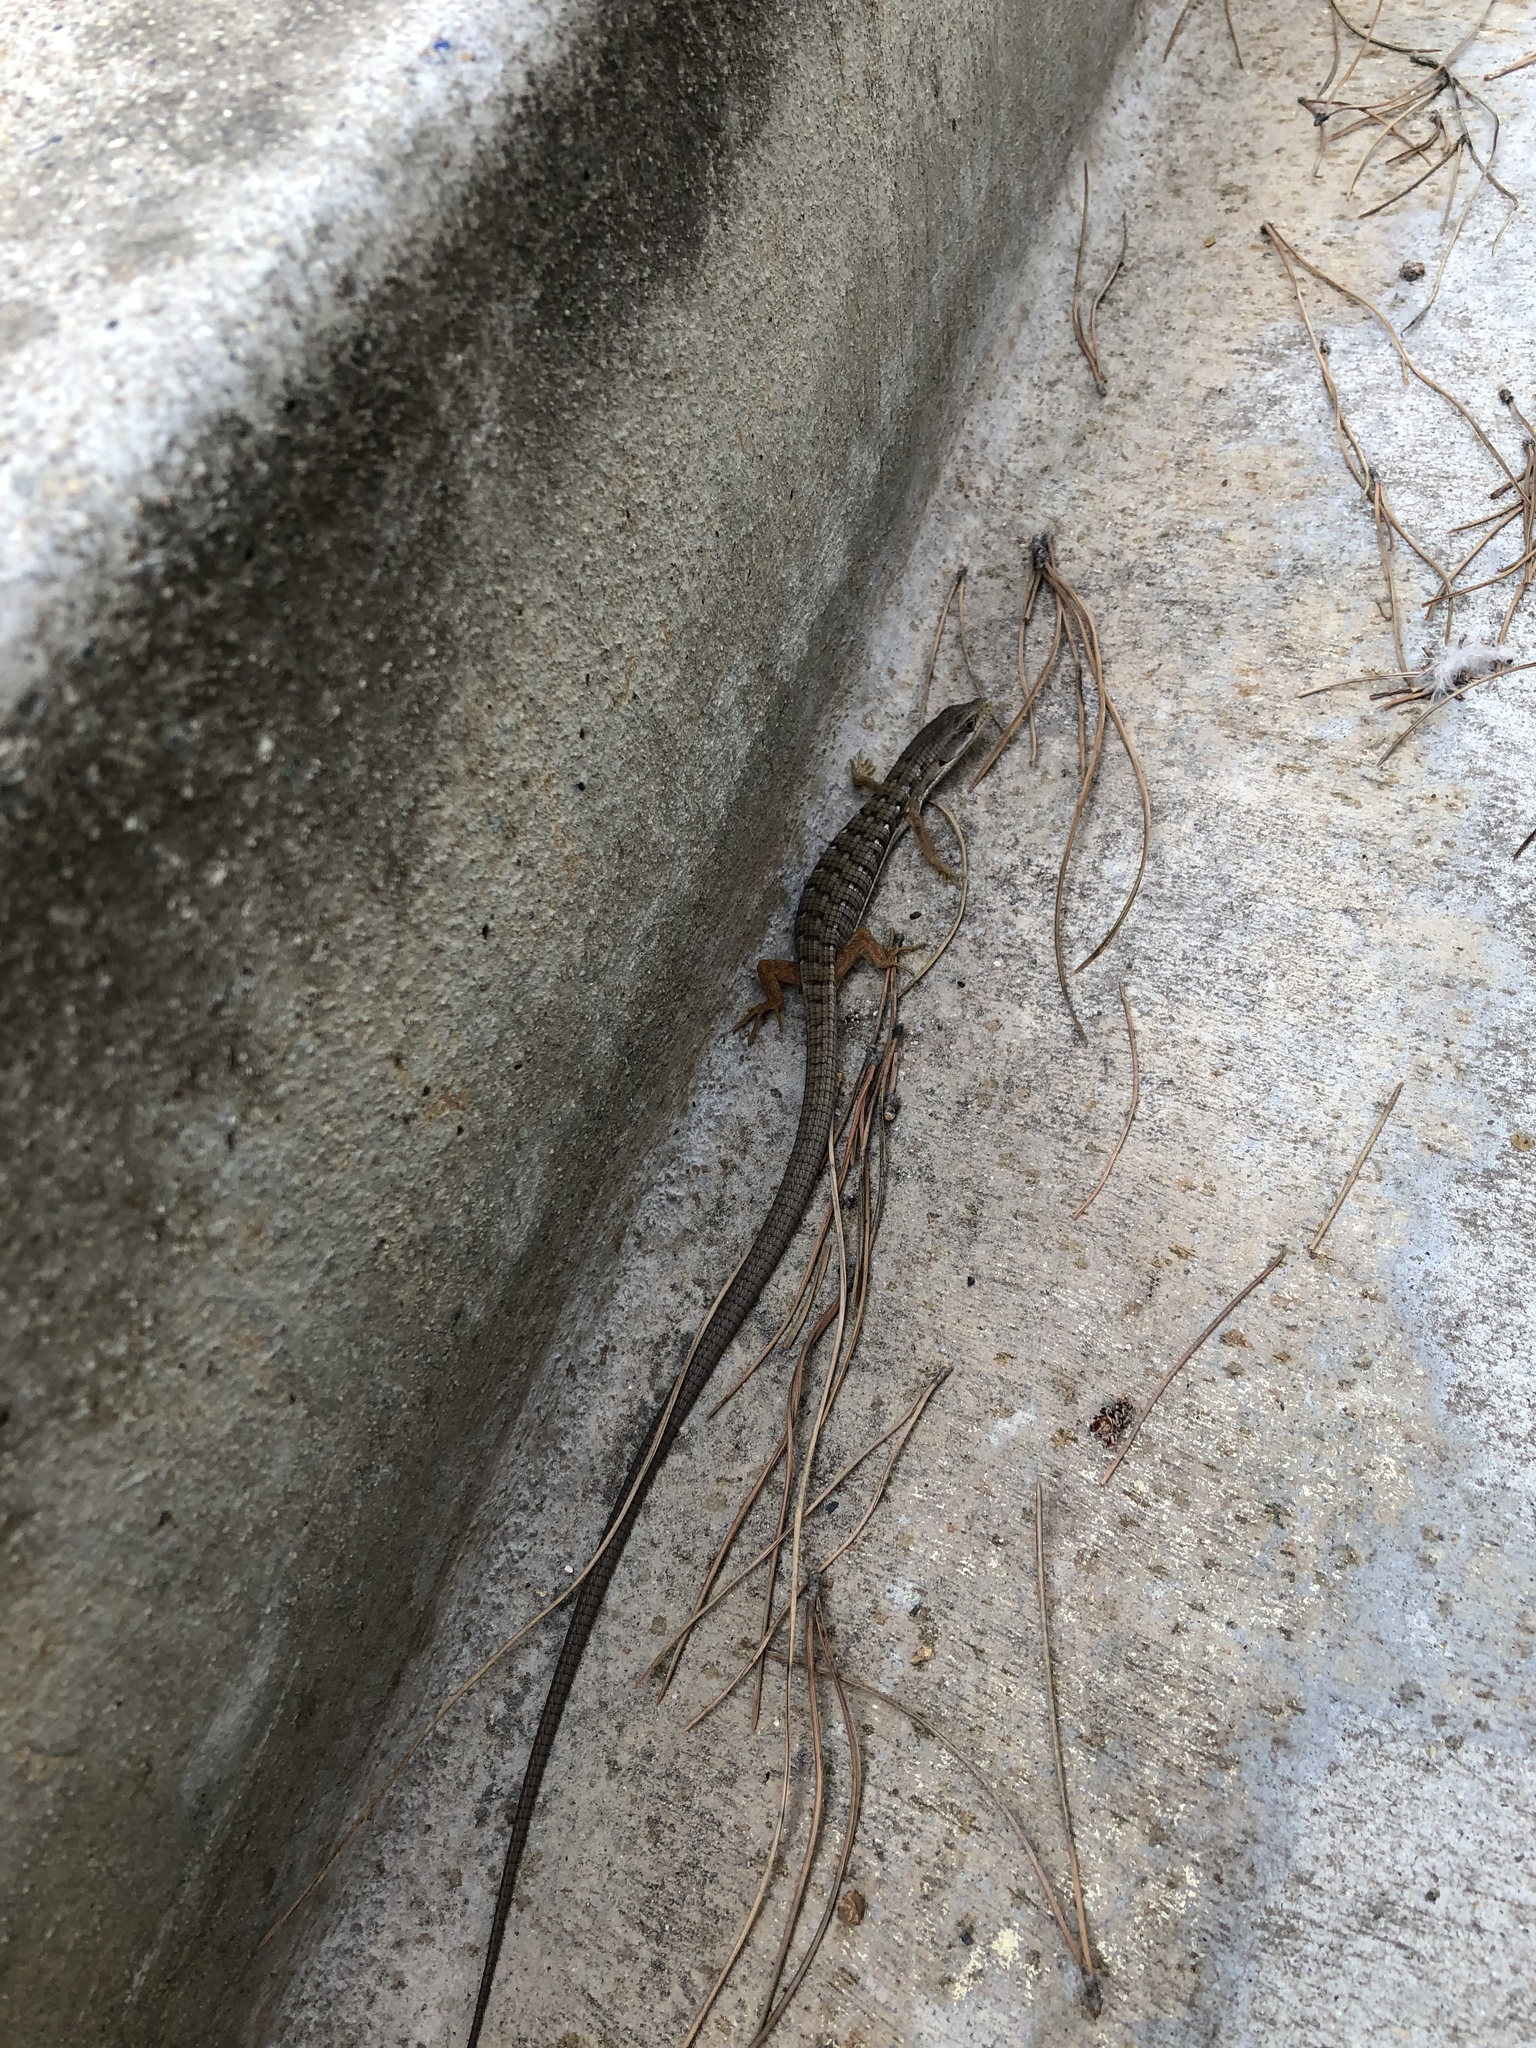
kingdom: Animalia
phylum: Chordata
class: Squamata
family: Anguidae
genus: Elgaria
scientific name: Elgaria multicarinata
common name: Southern alligator lizard
